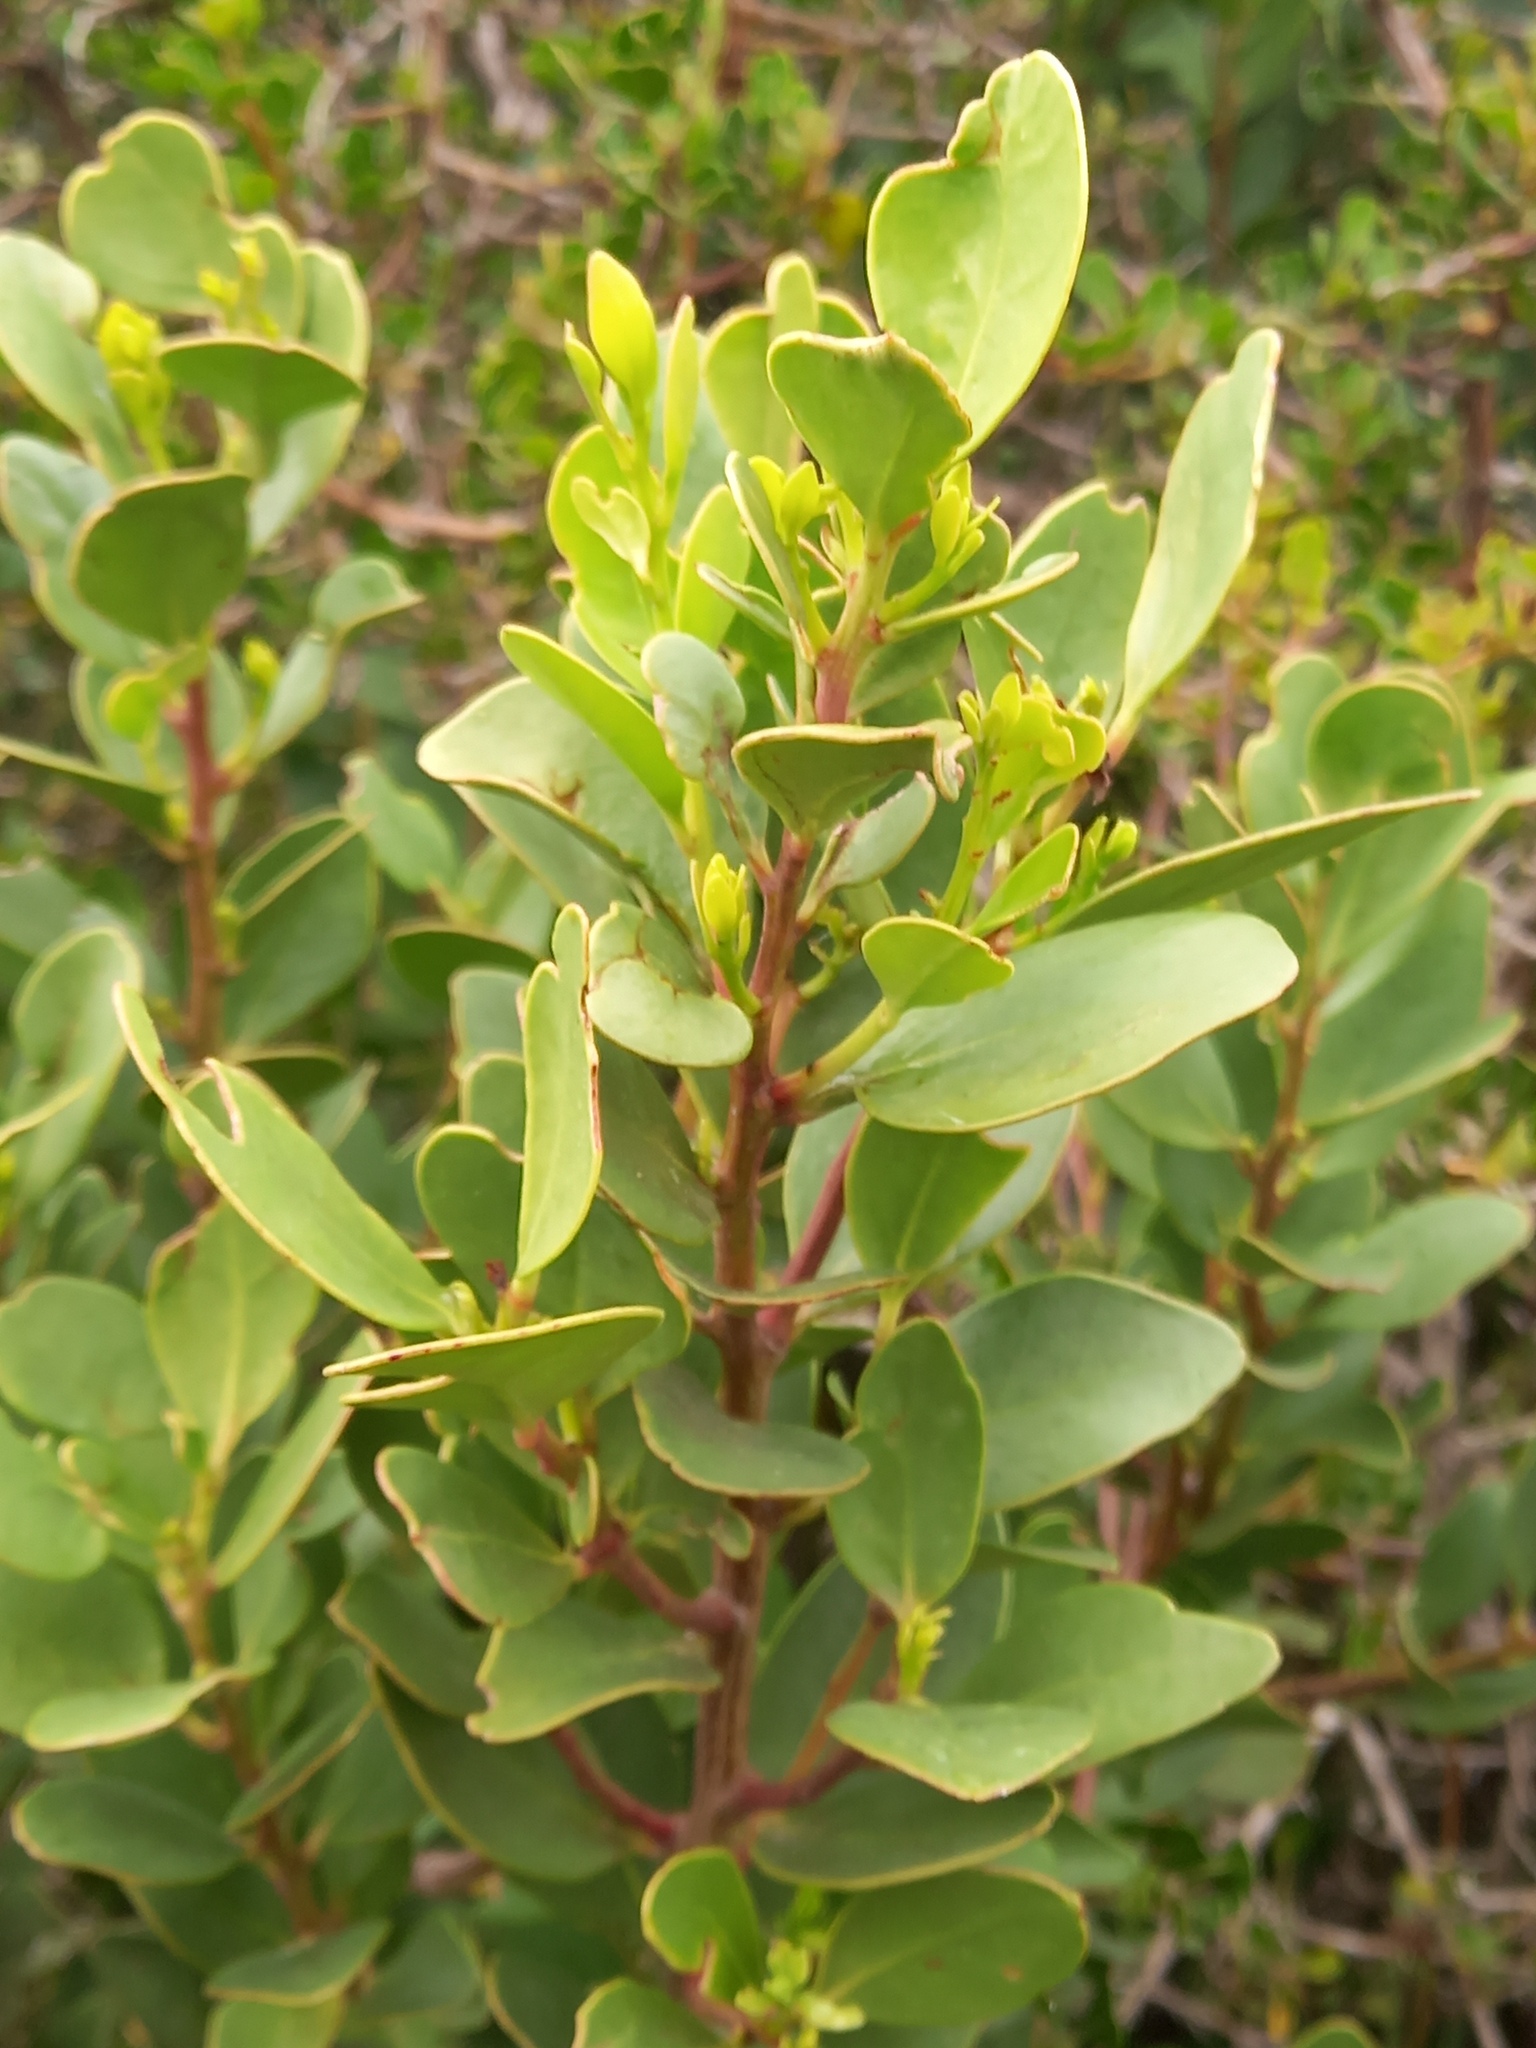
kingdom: Plantae
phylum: Tracheophyta
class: Magnoliopsida
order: Celastrales
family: Celastraceae
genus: Pterocelastrus
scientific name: Pterocelastrus tricuspidatus
